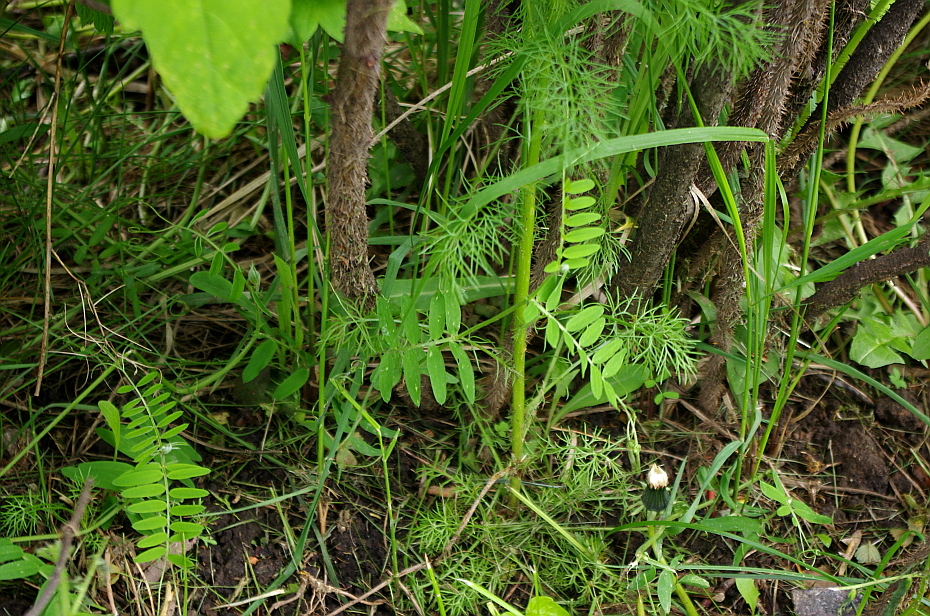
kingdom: Plantae
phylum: Tracheophyta
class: Magnoliopsida
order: Fabales
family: Fabaceae
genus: Vicia
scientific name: Vicia cracca
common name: Bird vetch
